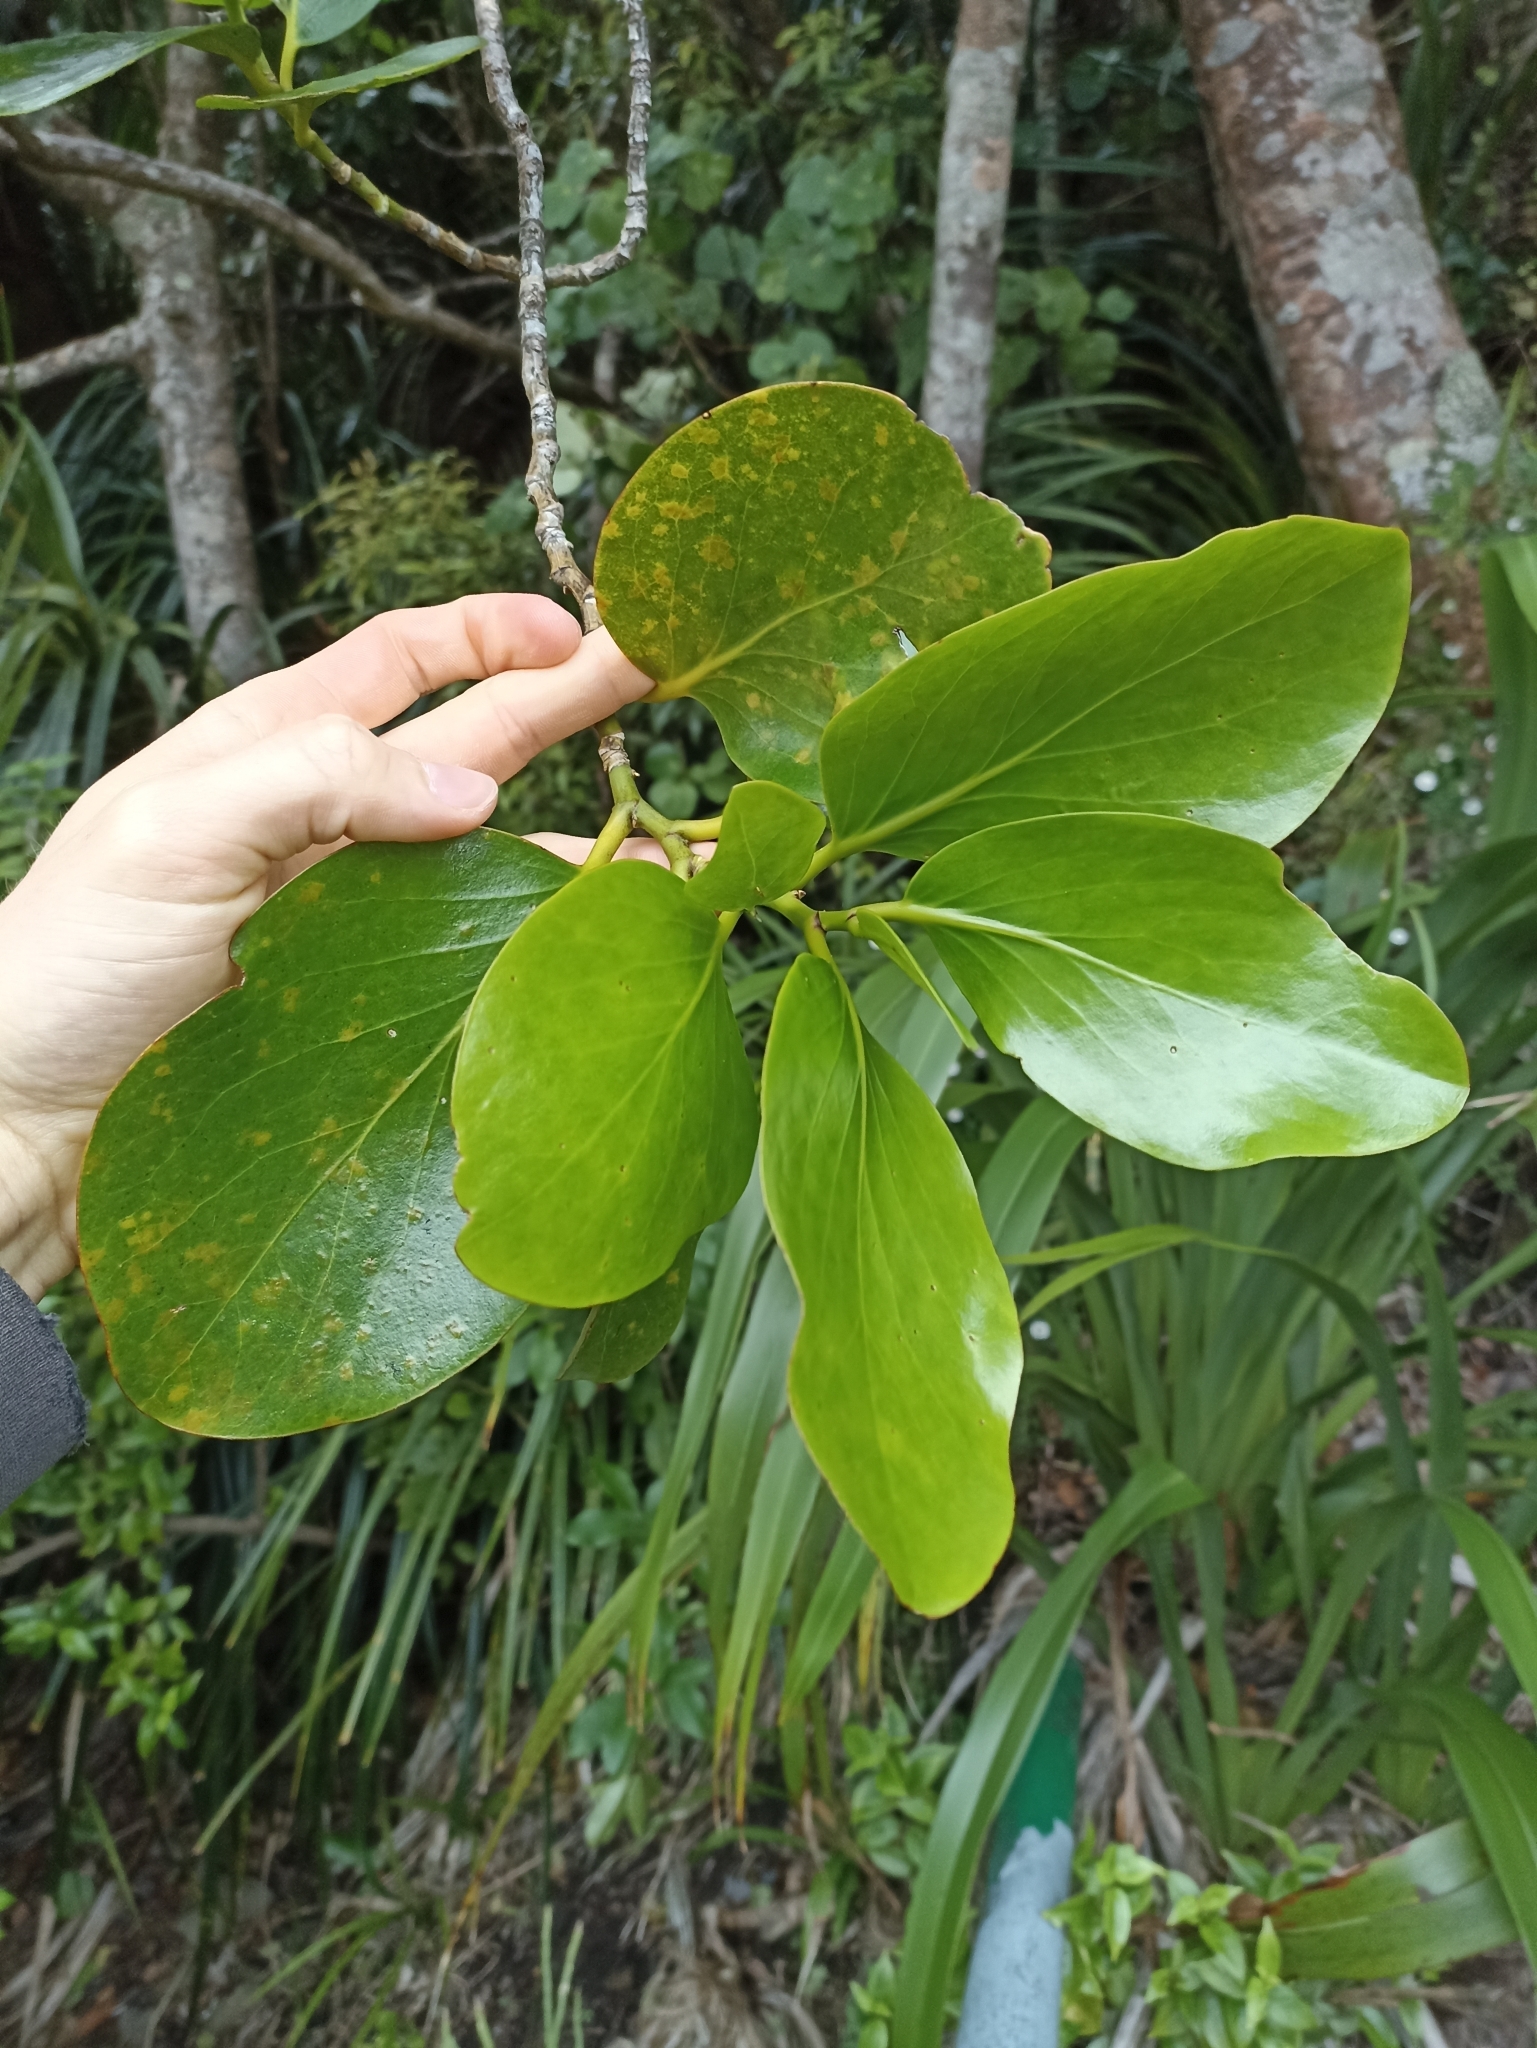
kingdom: Plantae
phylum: Tracheophyta
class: Magnoliopsida
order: Apiales
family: Griseliniaceae
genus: Griselinia
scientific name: Griselinia lucida
